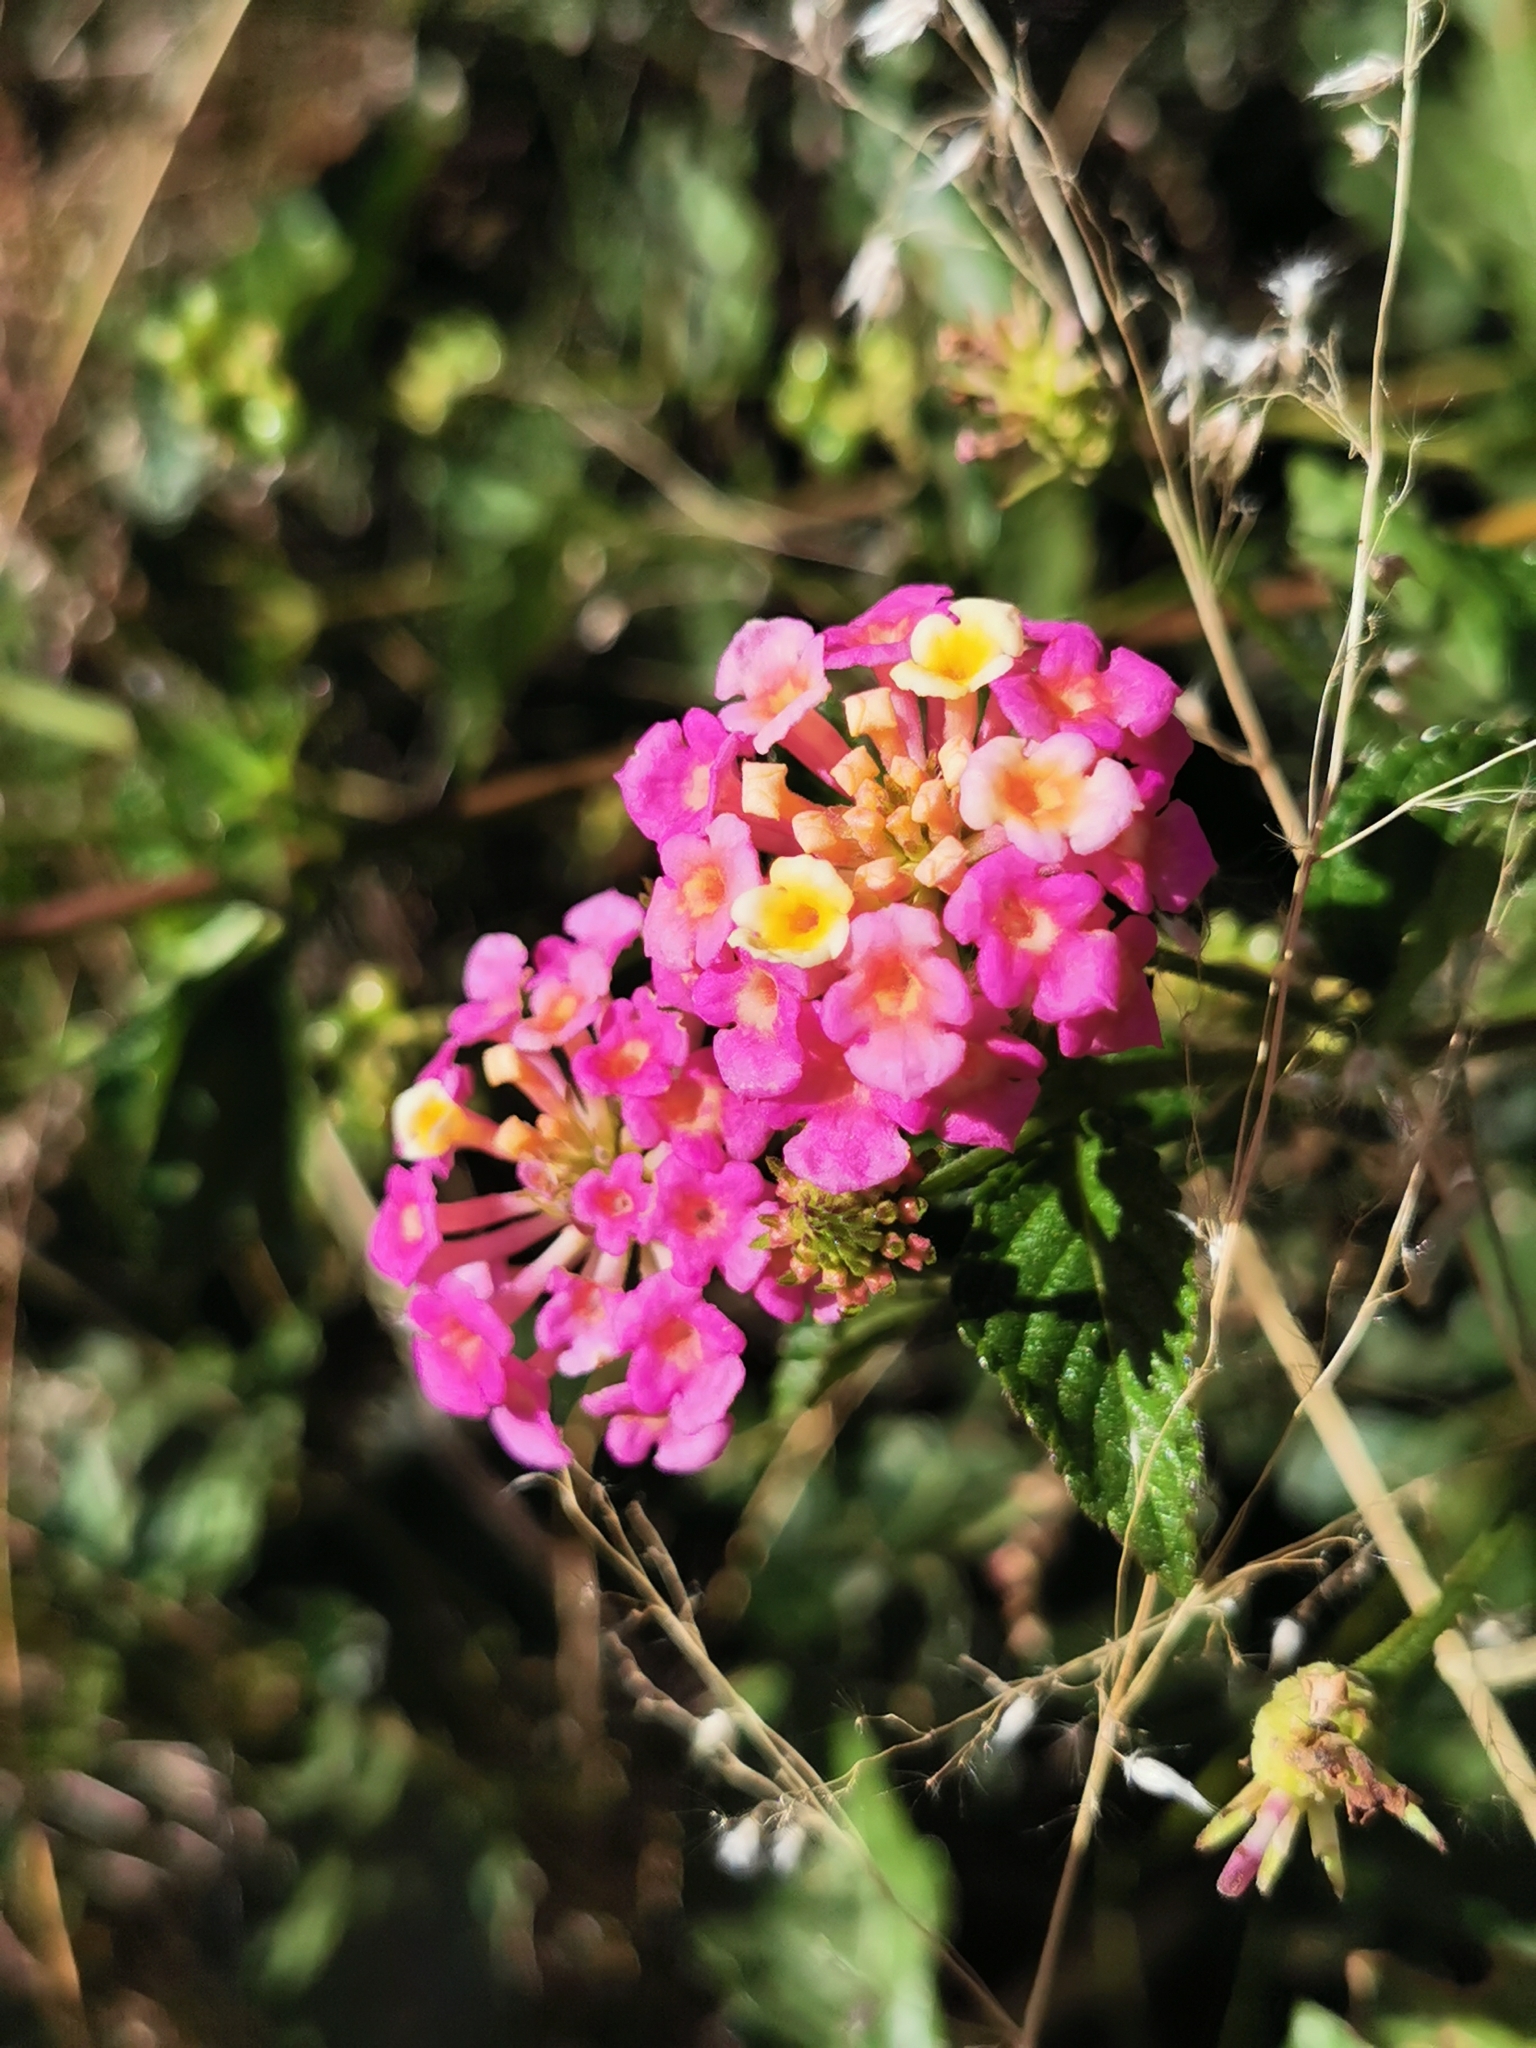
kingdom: Plantae
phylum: Tracheophyta
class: Magnoliopsida
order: Lamiales
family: Verbenaceae
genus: Lantana
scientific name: Lantana camara
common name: Lantana
